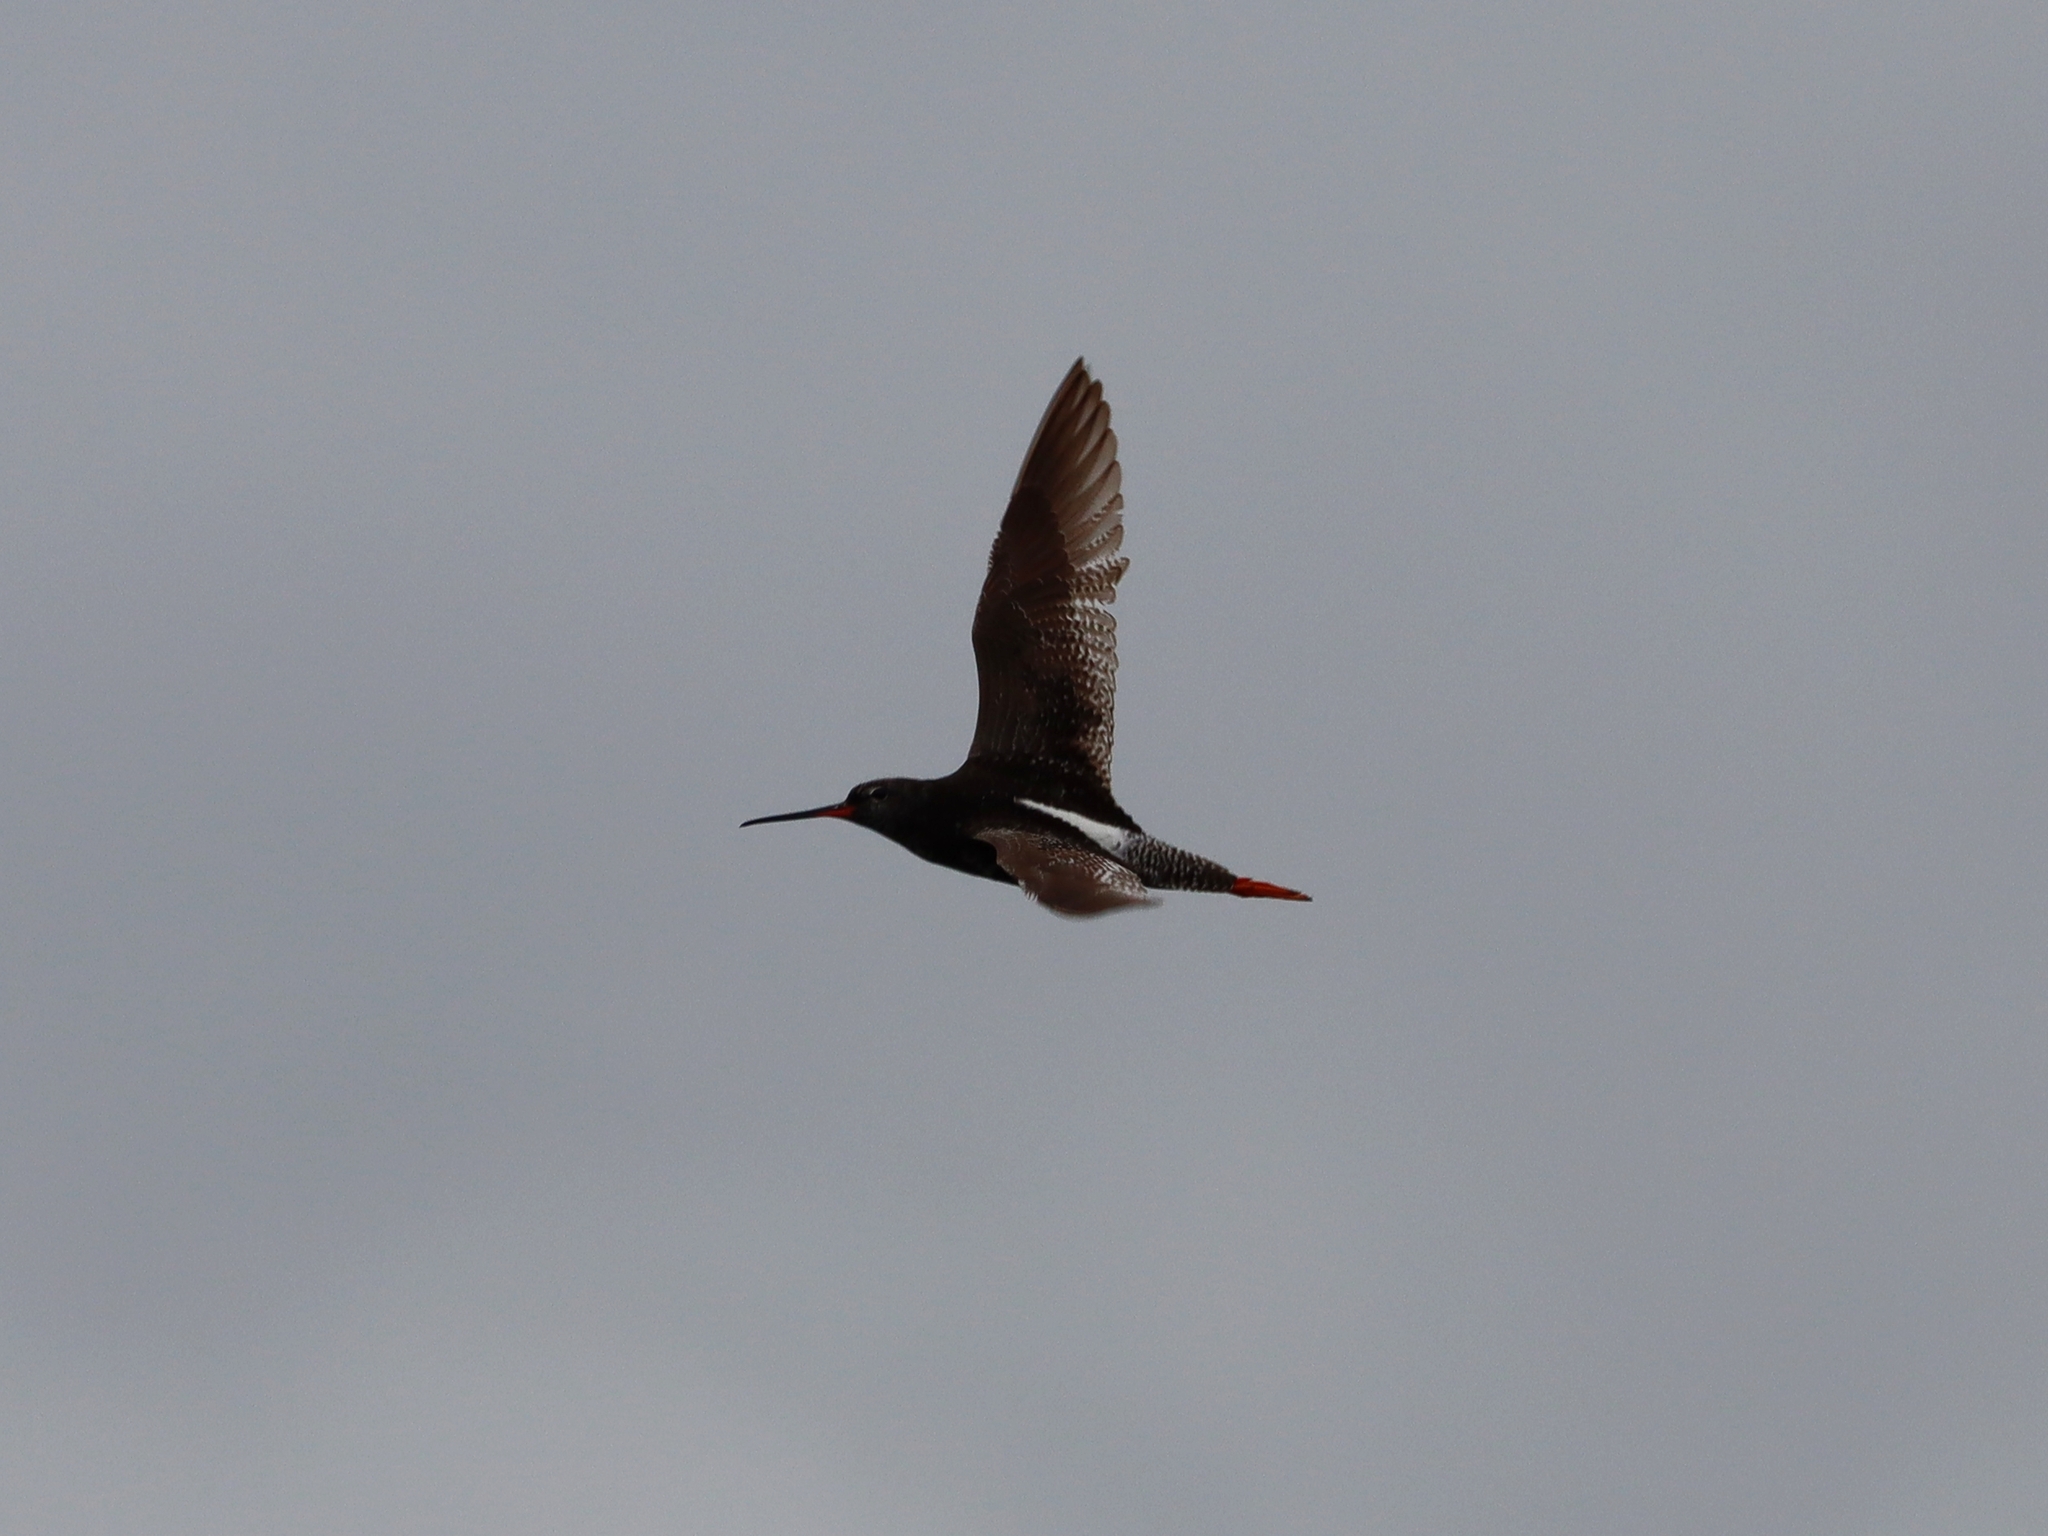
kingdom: Animalia
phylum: Chordata
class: Aves
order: Charadriiformes
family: Scolopacidae
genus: Tringa
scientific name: Tringa erythropus
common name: Spotted redshank
